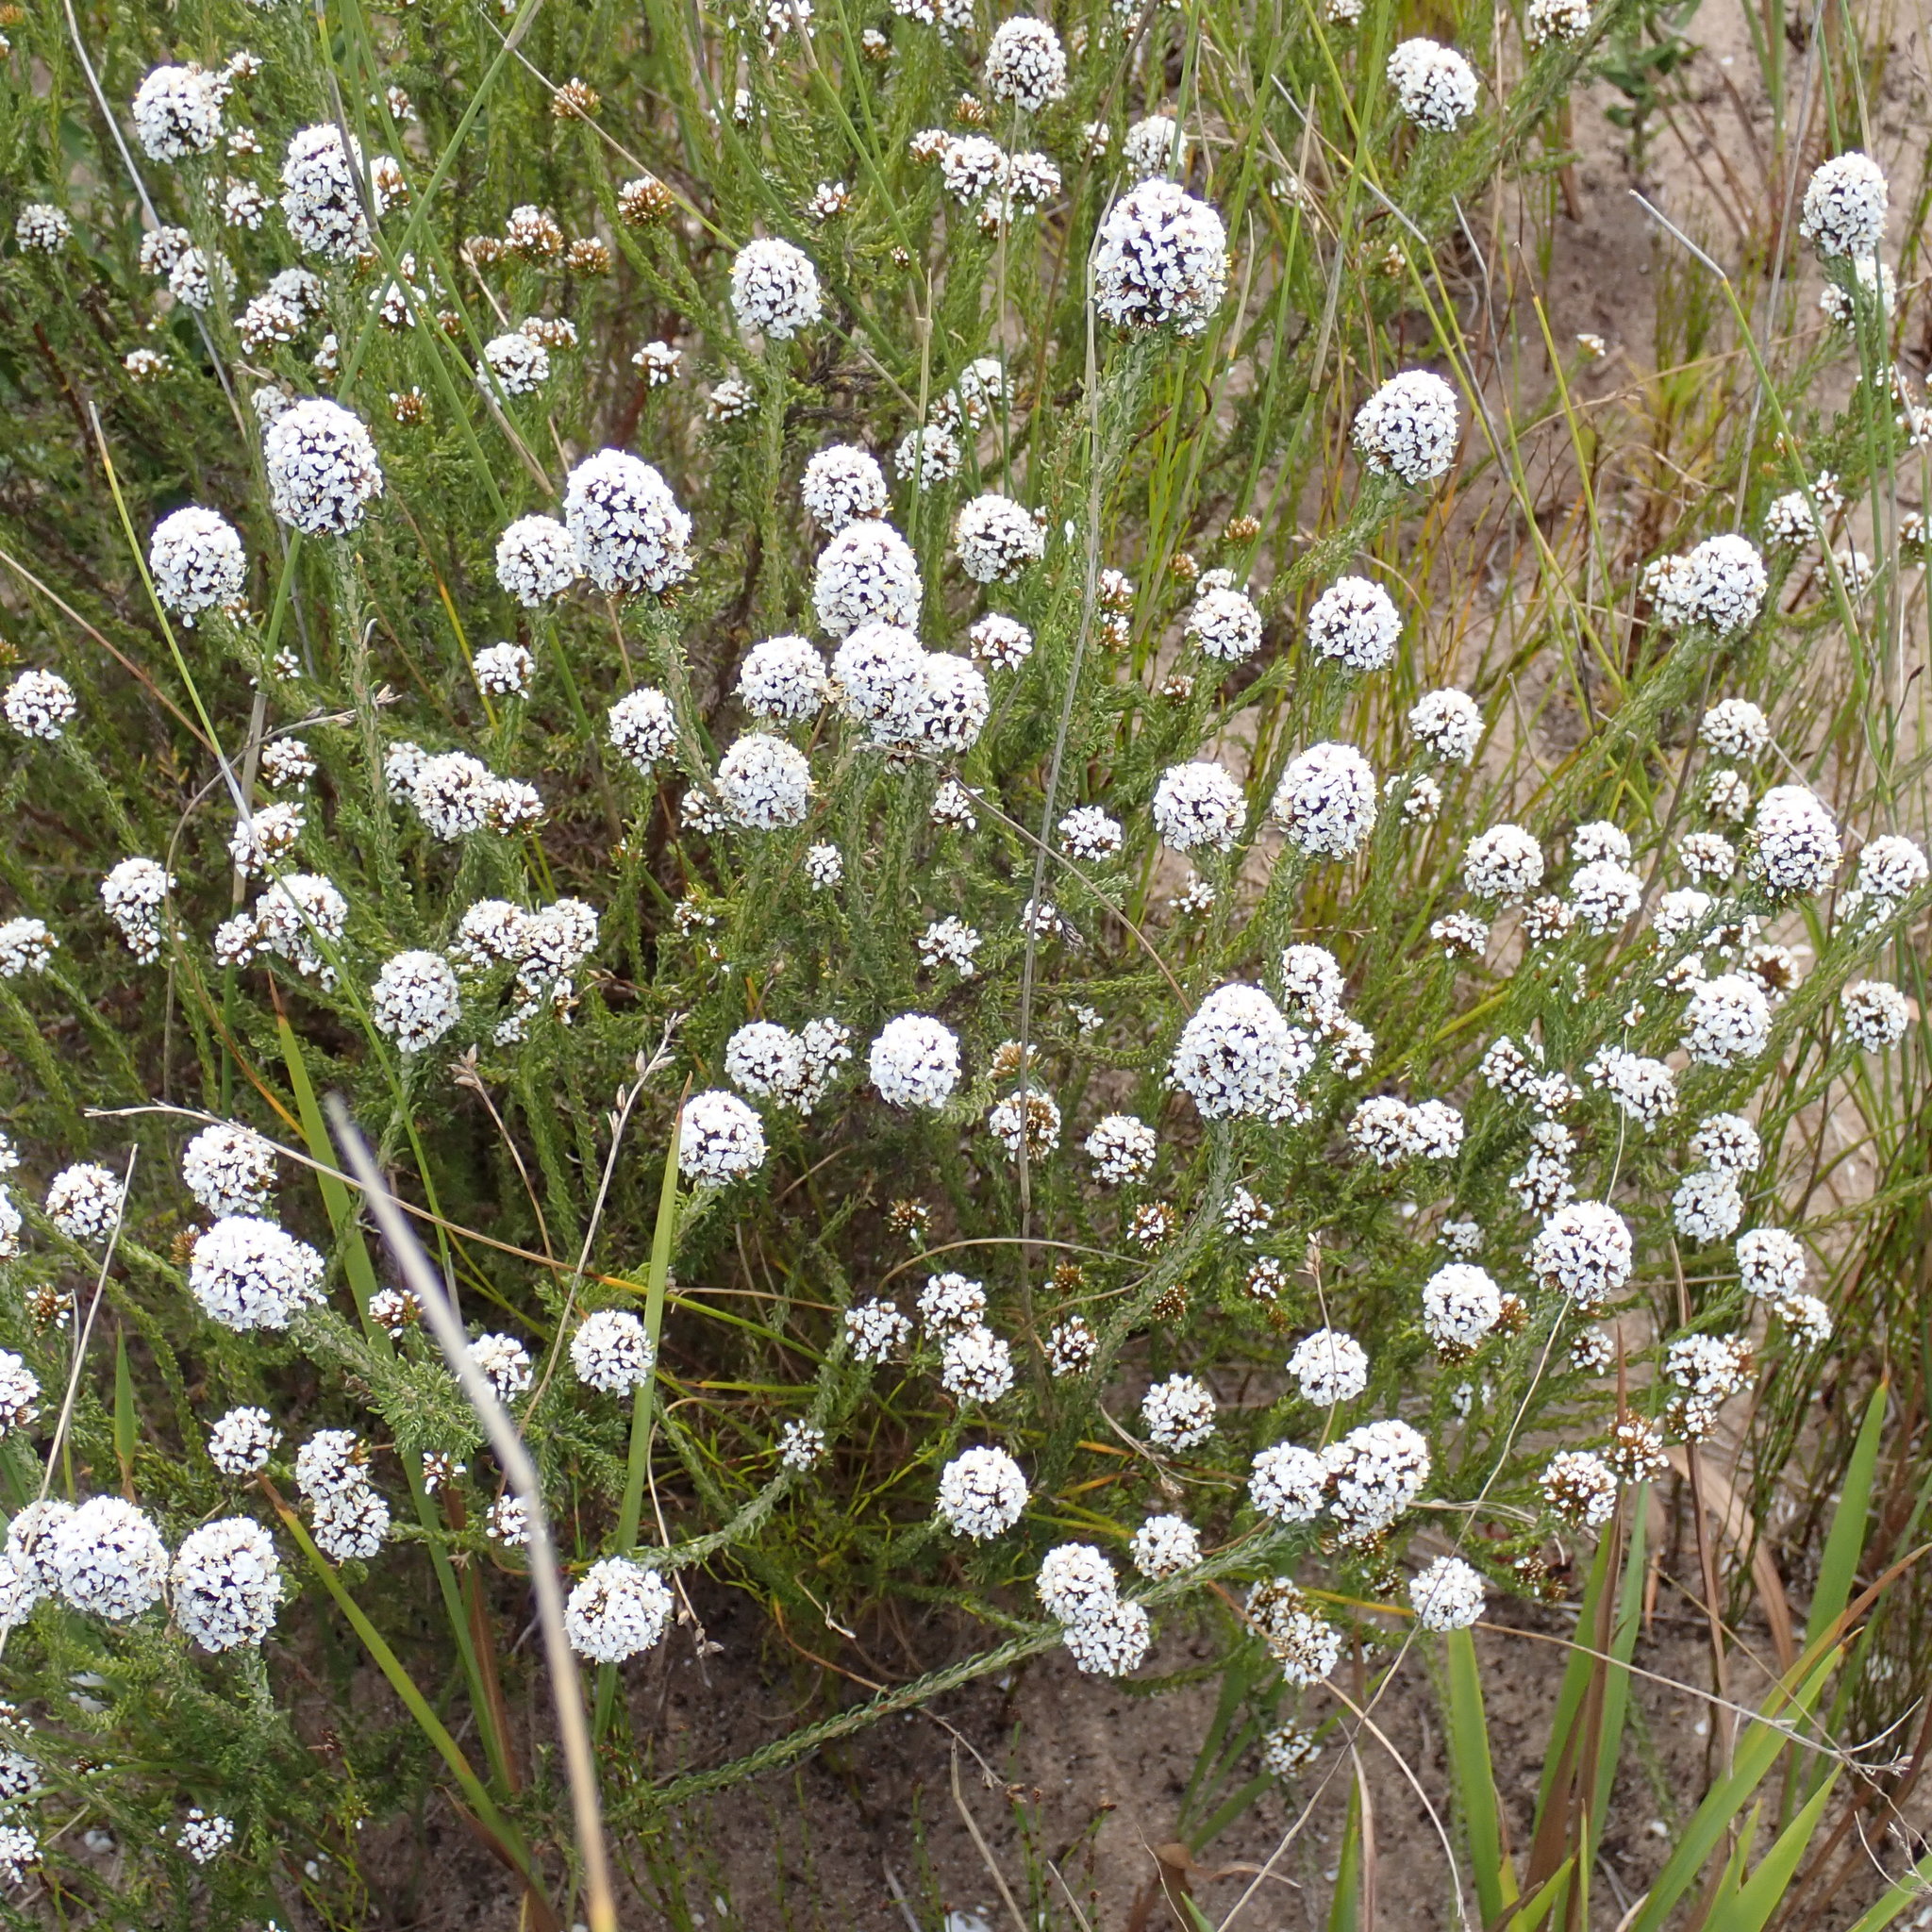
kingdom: Plantae
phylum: Tracheophyta
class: Magnoliopsida
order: Asterales
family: Asteraceae
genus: Disparago
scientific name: Disparago kraussii
